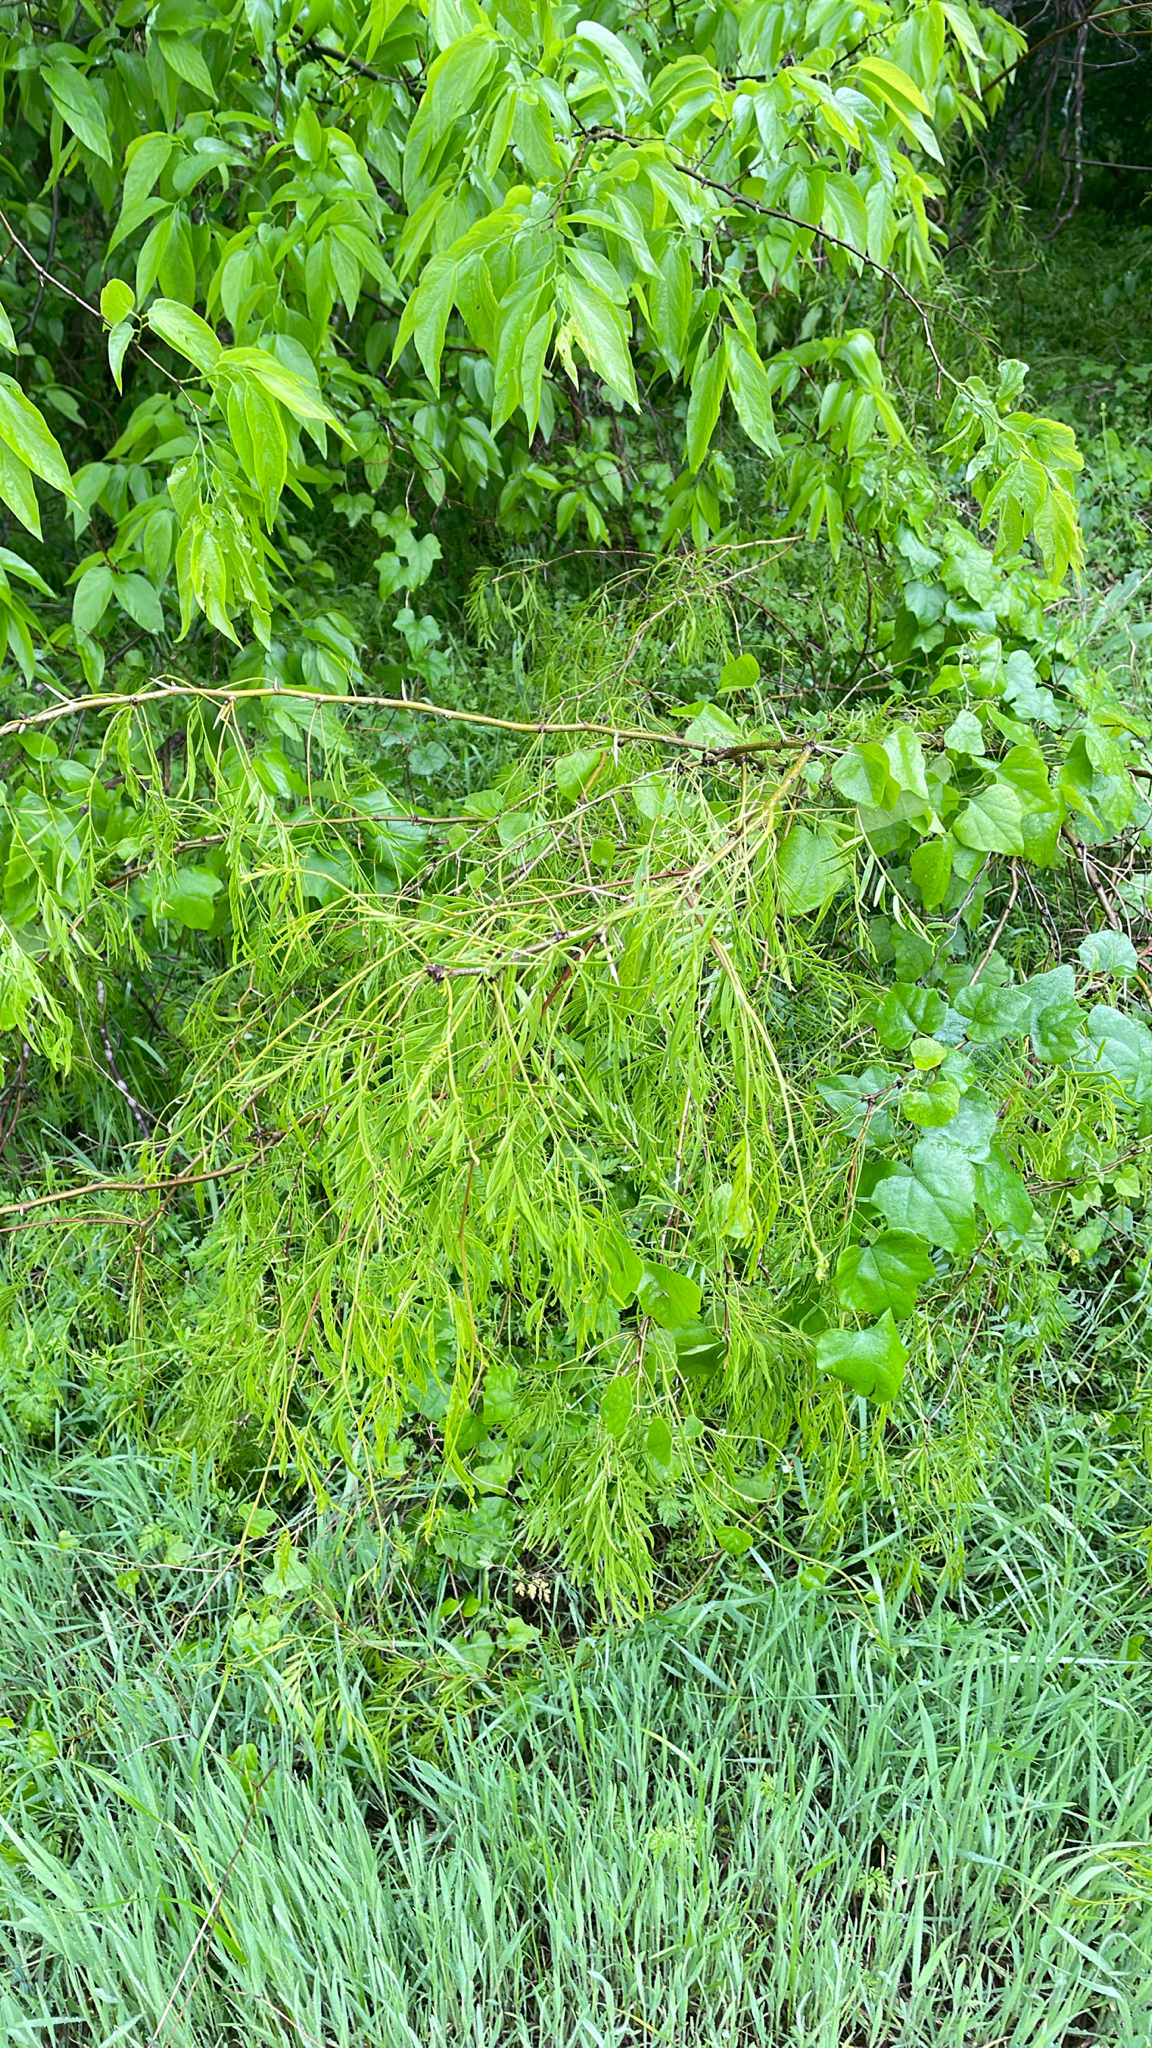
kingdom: Plantae
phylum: Tracheophyta
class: Magnoliopsida
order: Fabales
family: Fabaceae
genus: Prosopis
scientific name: Prosopis glandulosa
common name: Honey mesquite
